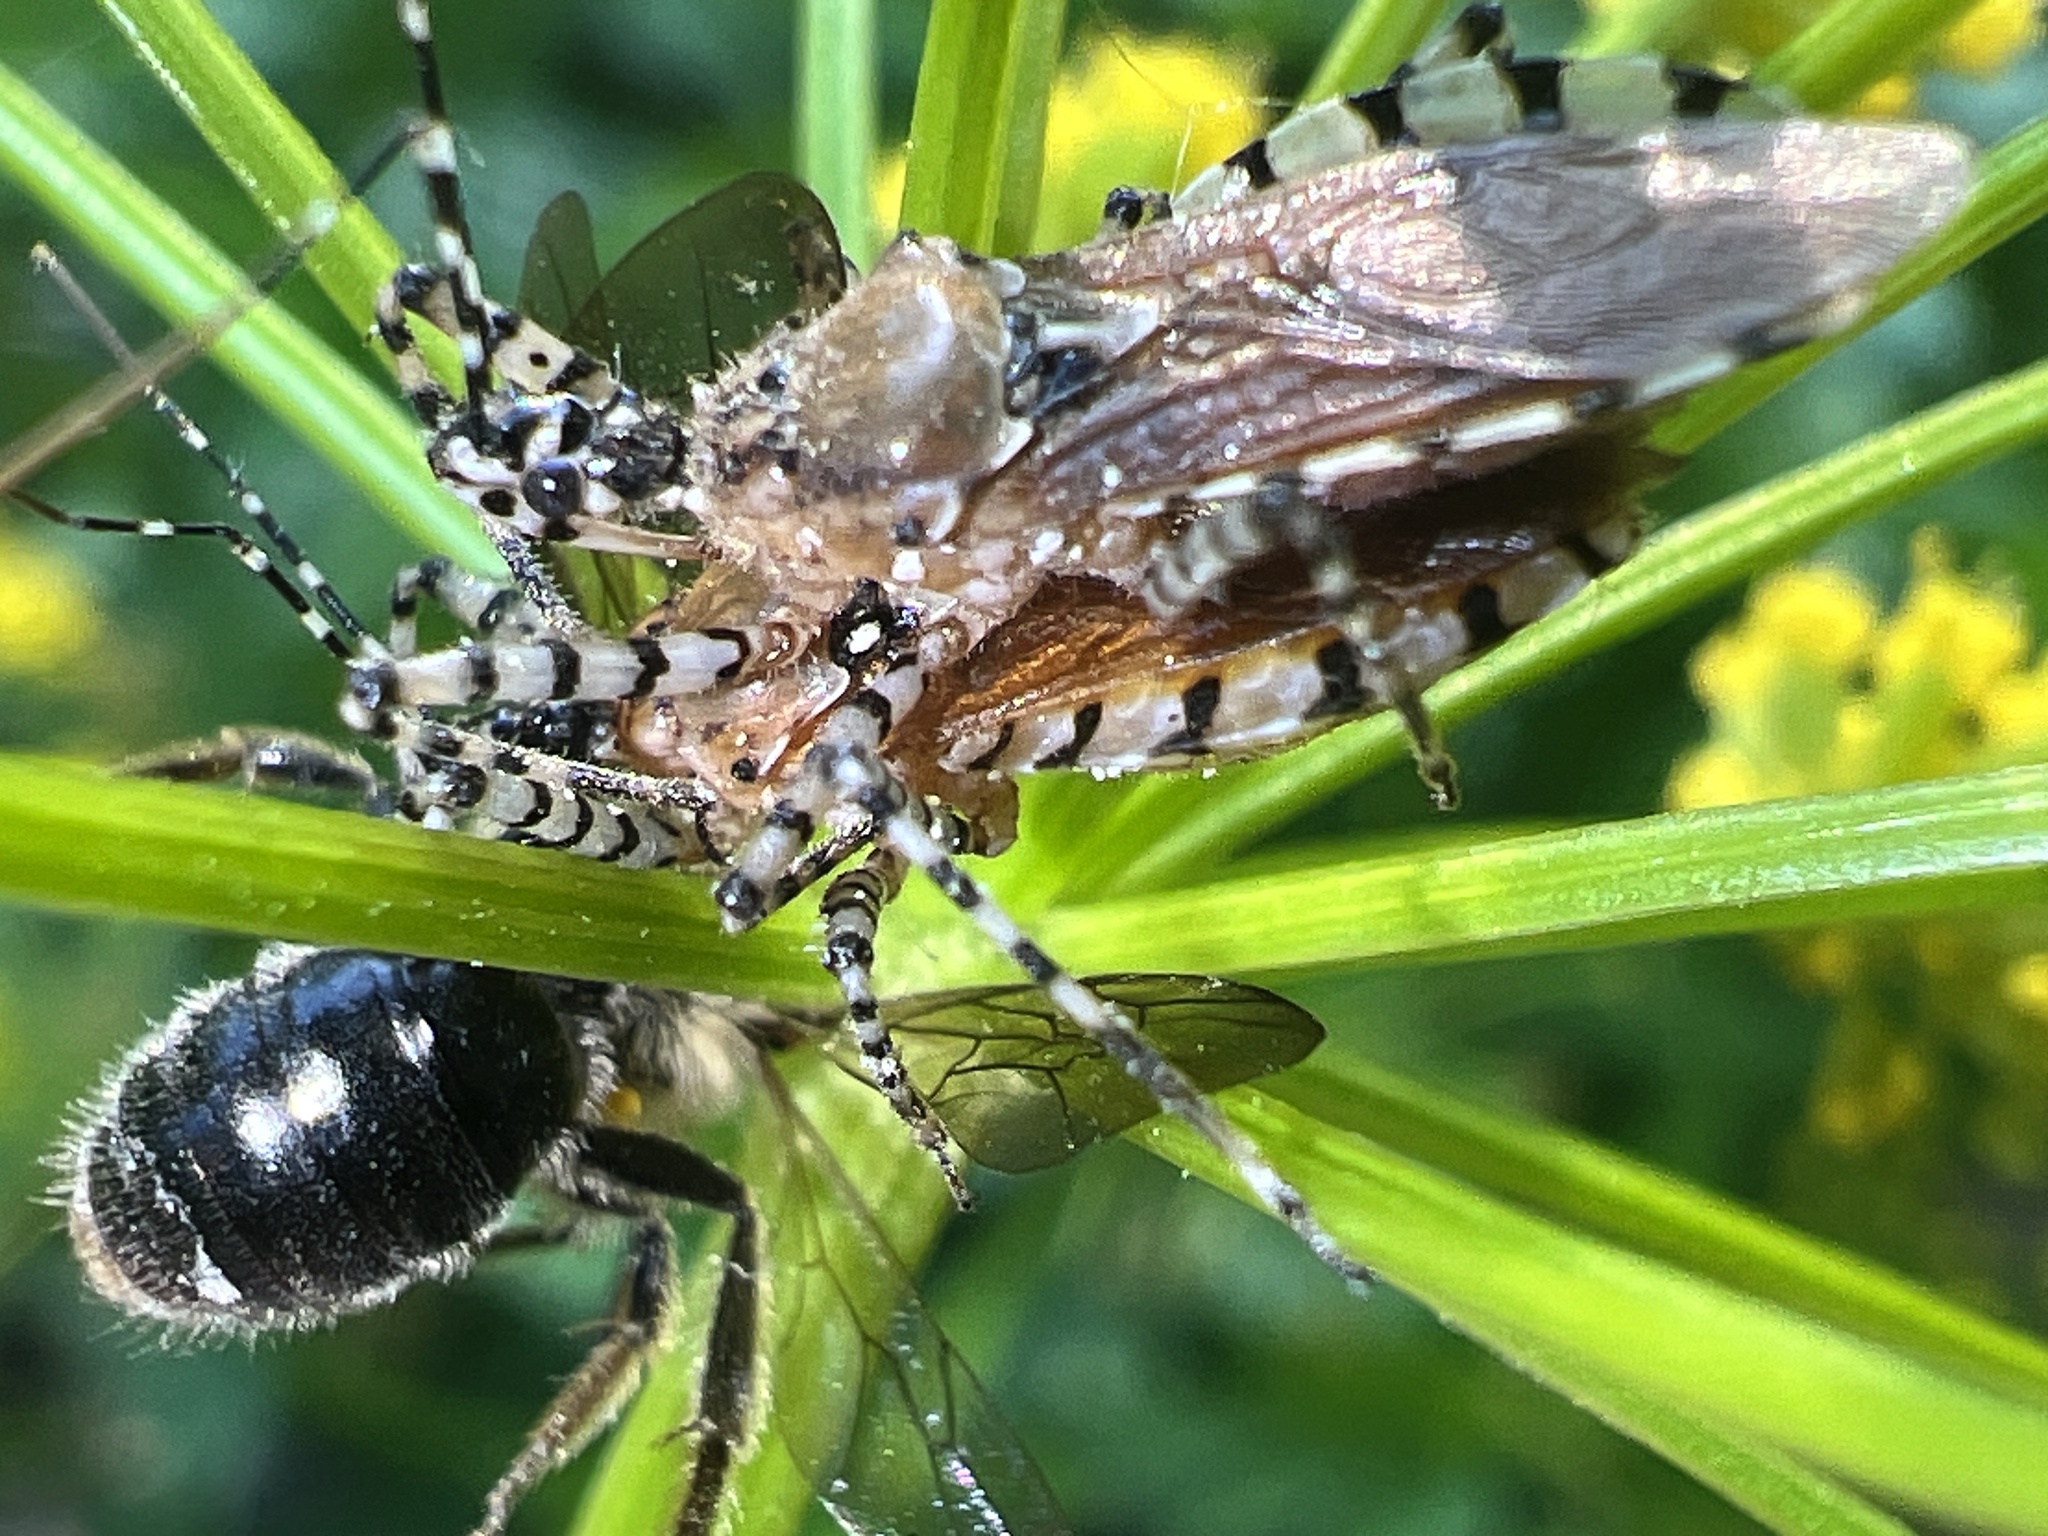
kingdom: Animalia
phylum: Arthropoda
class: Insecta
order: Hemiptera
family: Reduviidae
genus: Pselliopus
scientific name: Pselliopus cinctus
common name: Ringed assassin bug
